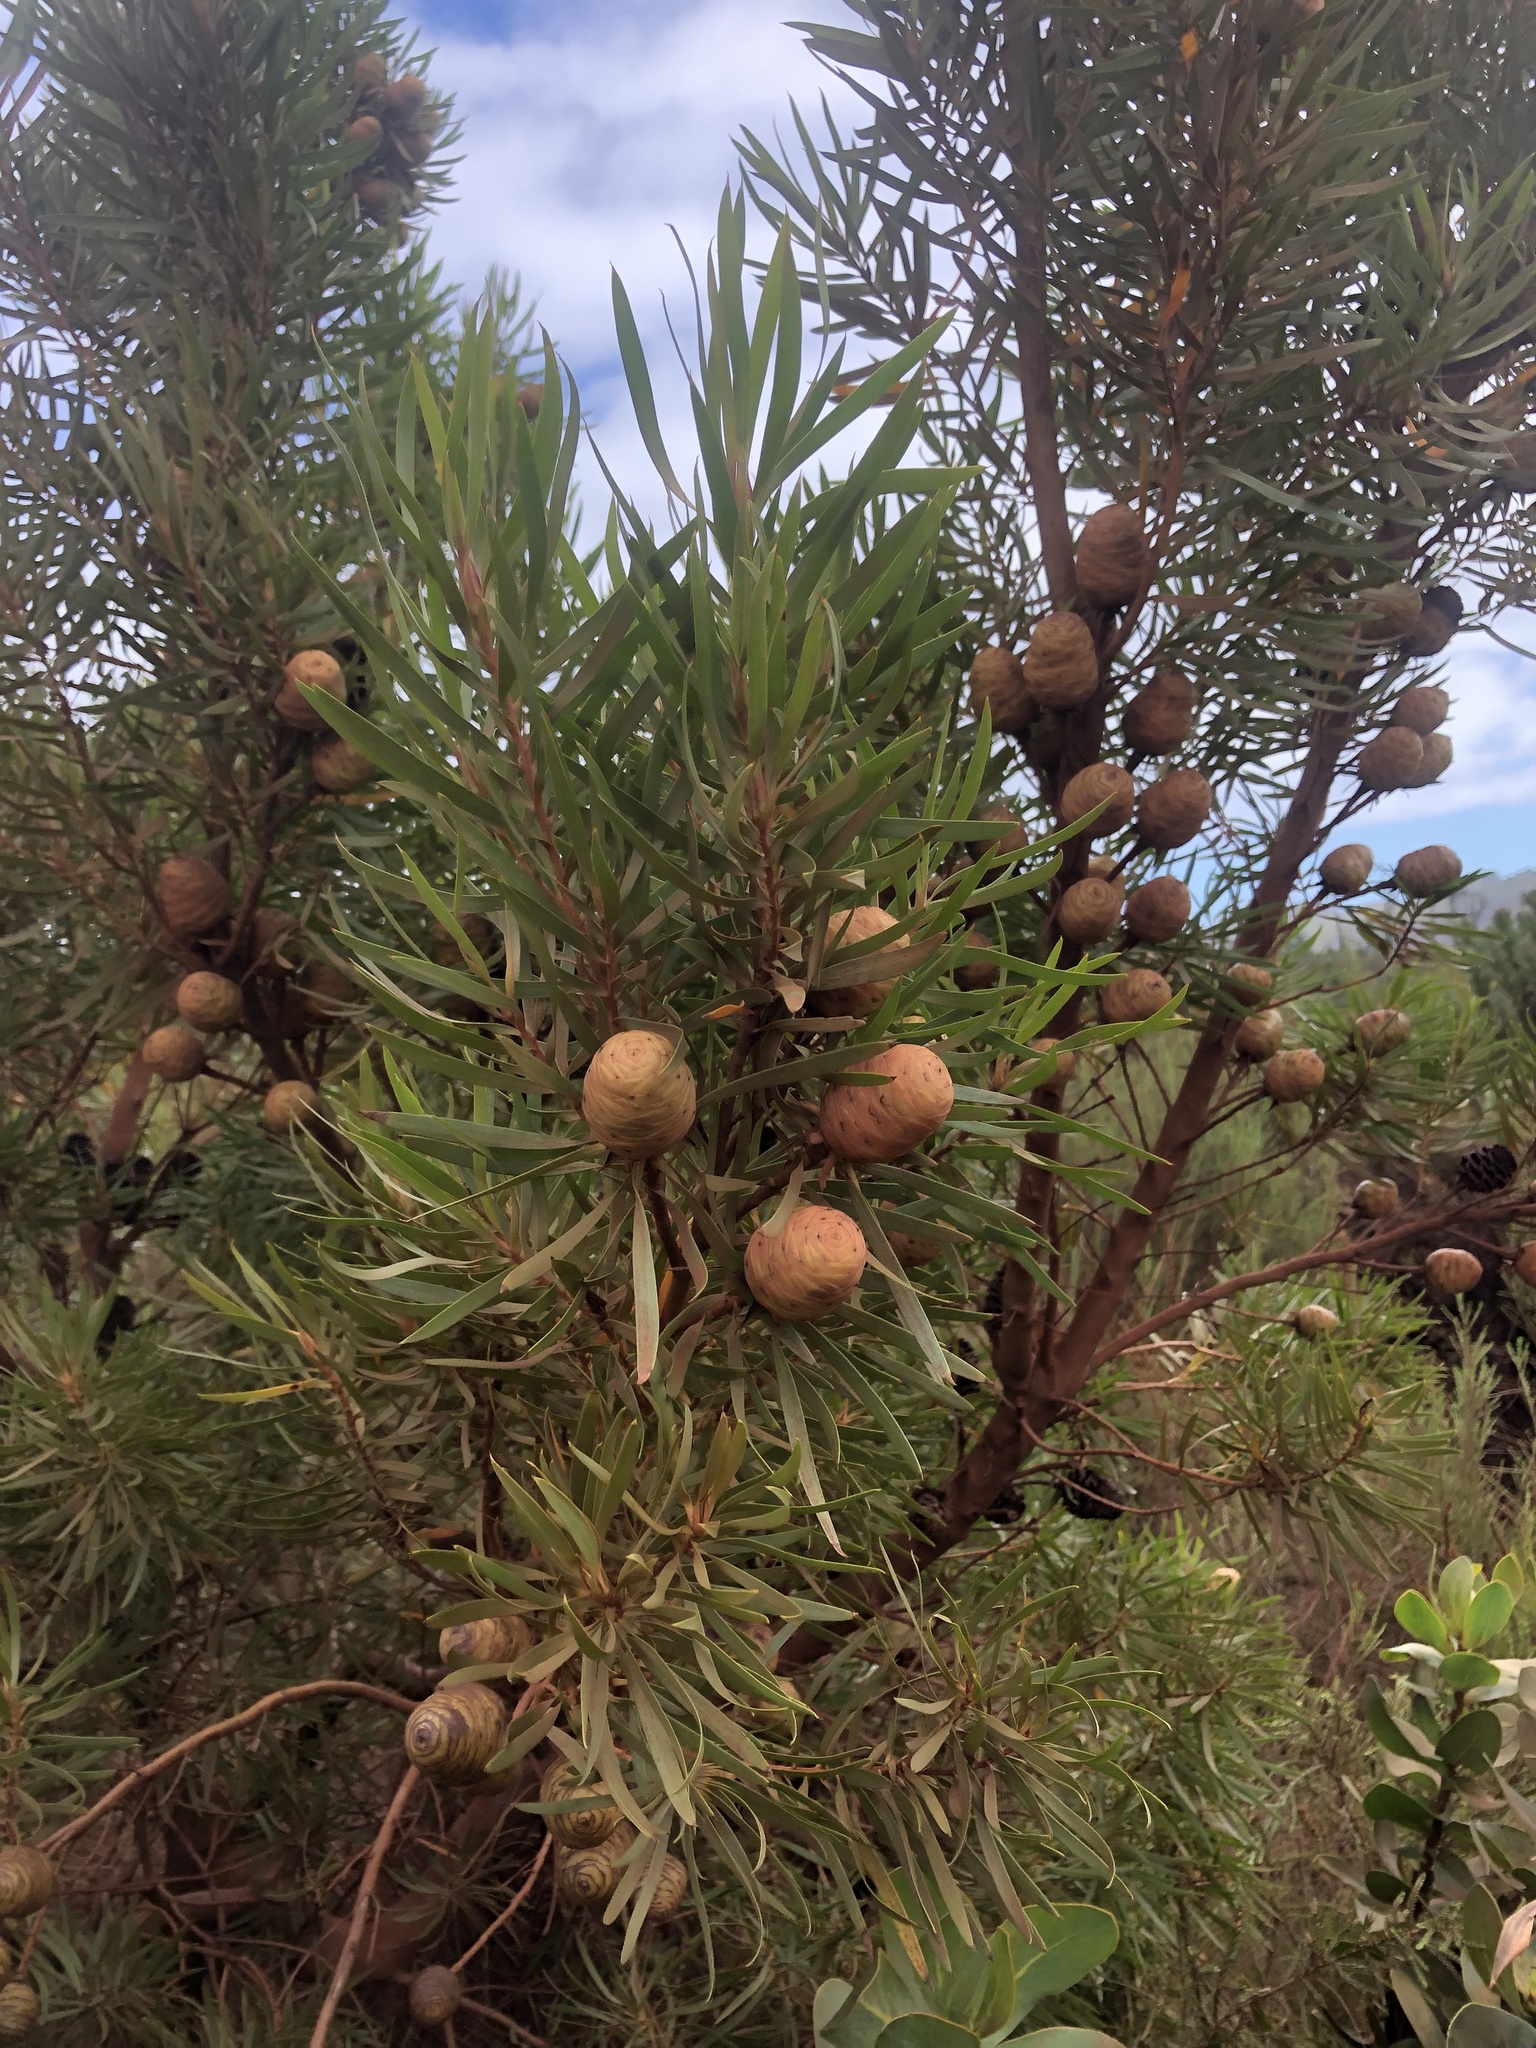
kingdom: Plantae
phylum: Tracheophyta
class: Magnoliopsida
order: Proteales
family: Proteaceae
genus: Leucadendron
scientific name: Leucadendron salicifolium
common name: Common stream conebush
